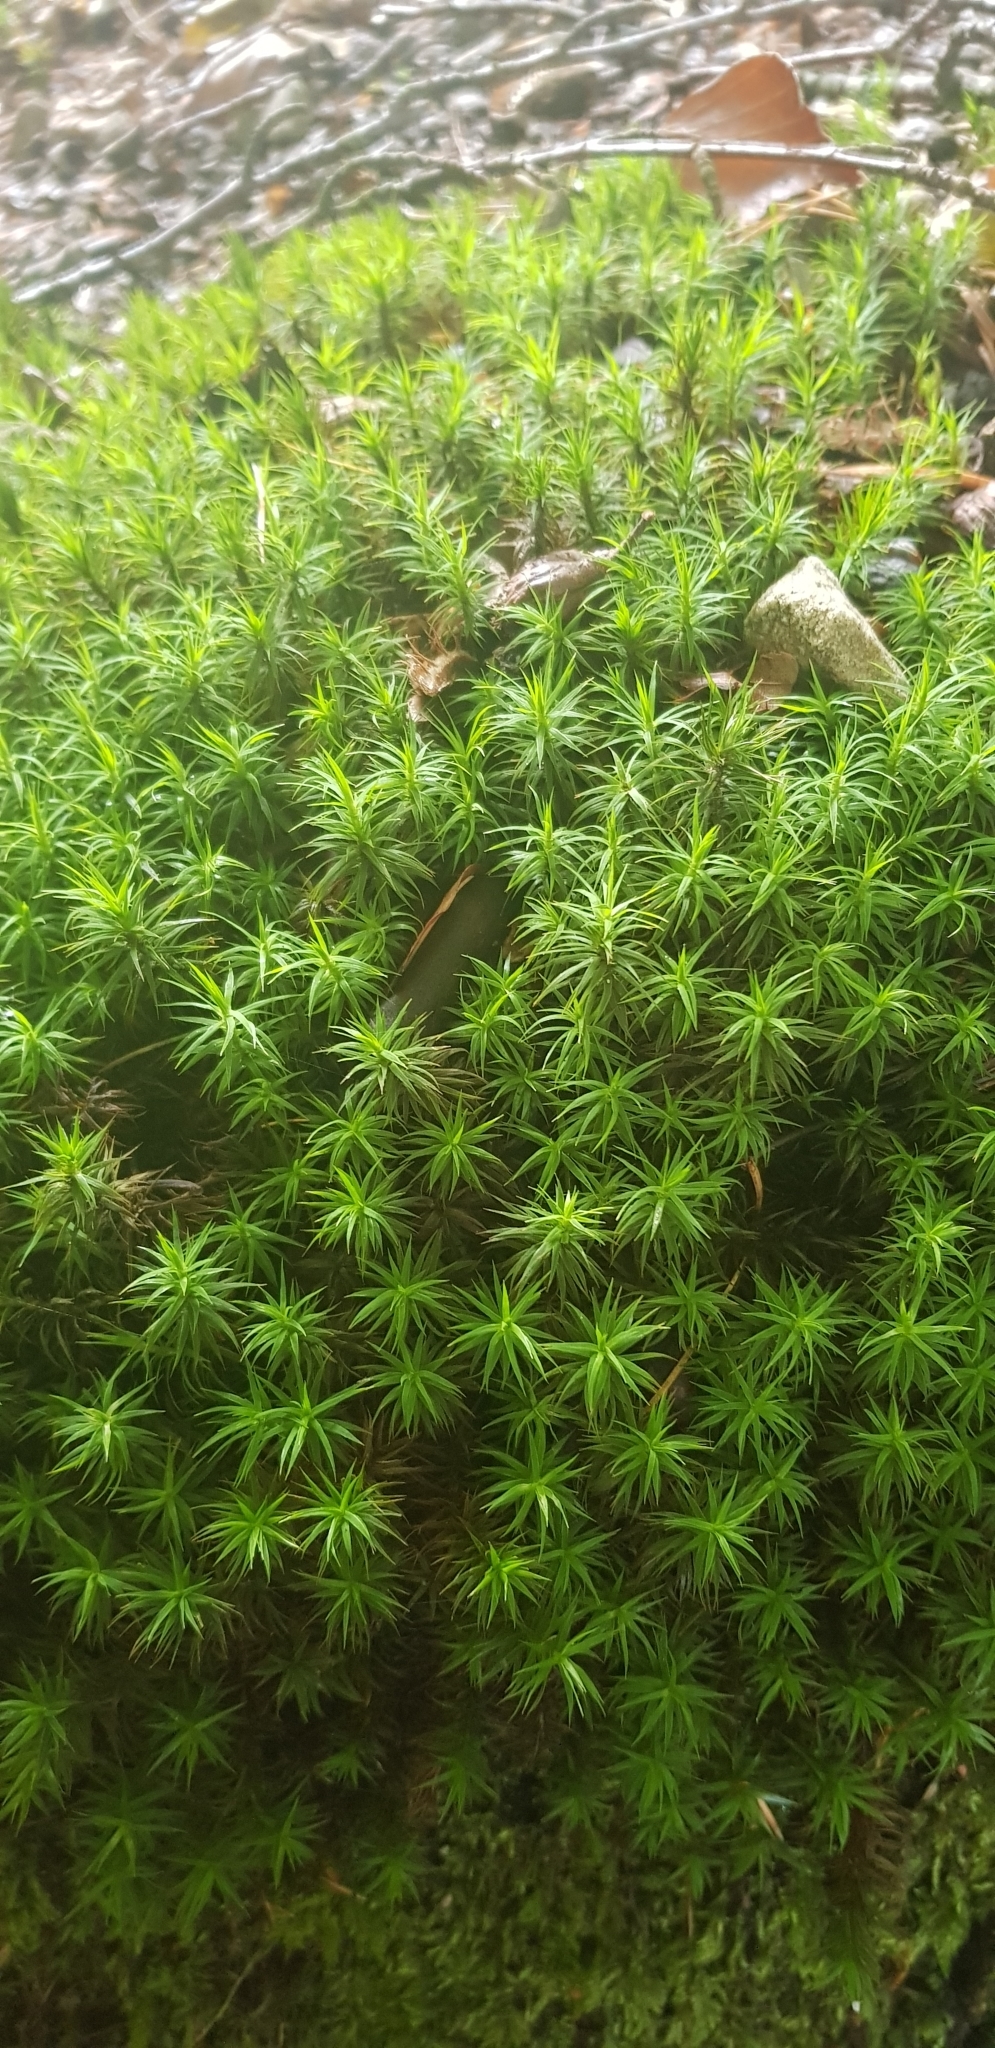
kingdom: Plantae
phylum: Bryophyta
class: Polytrichopsida
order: Polytrichales
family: Polytrichaceae
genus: Polytrichum
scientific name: Polytrichum formosum
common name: Bank haircap moss
